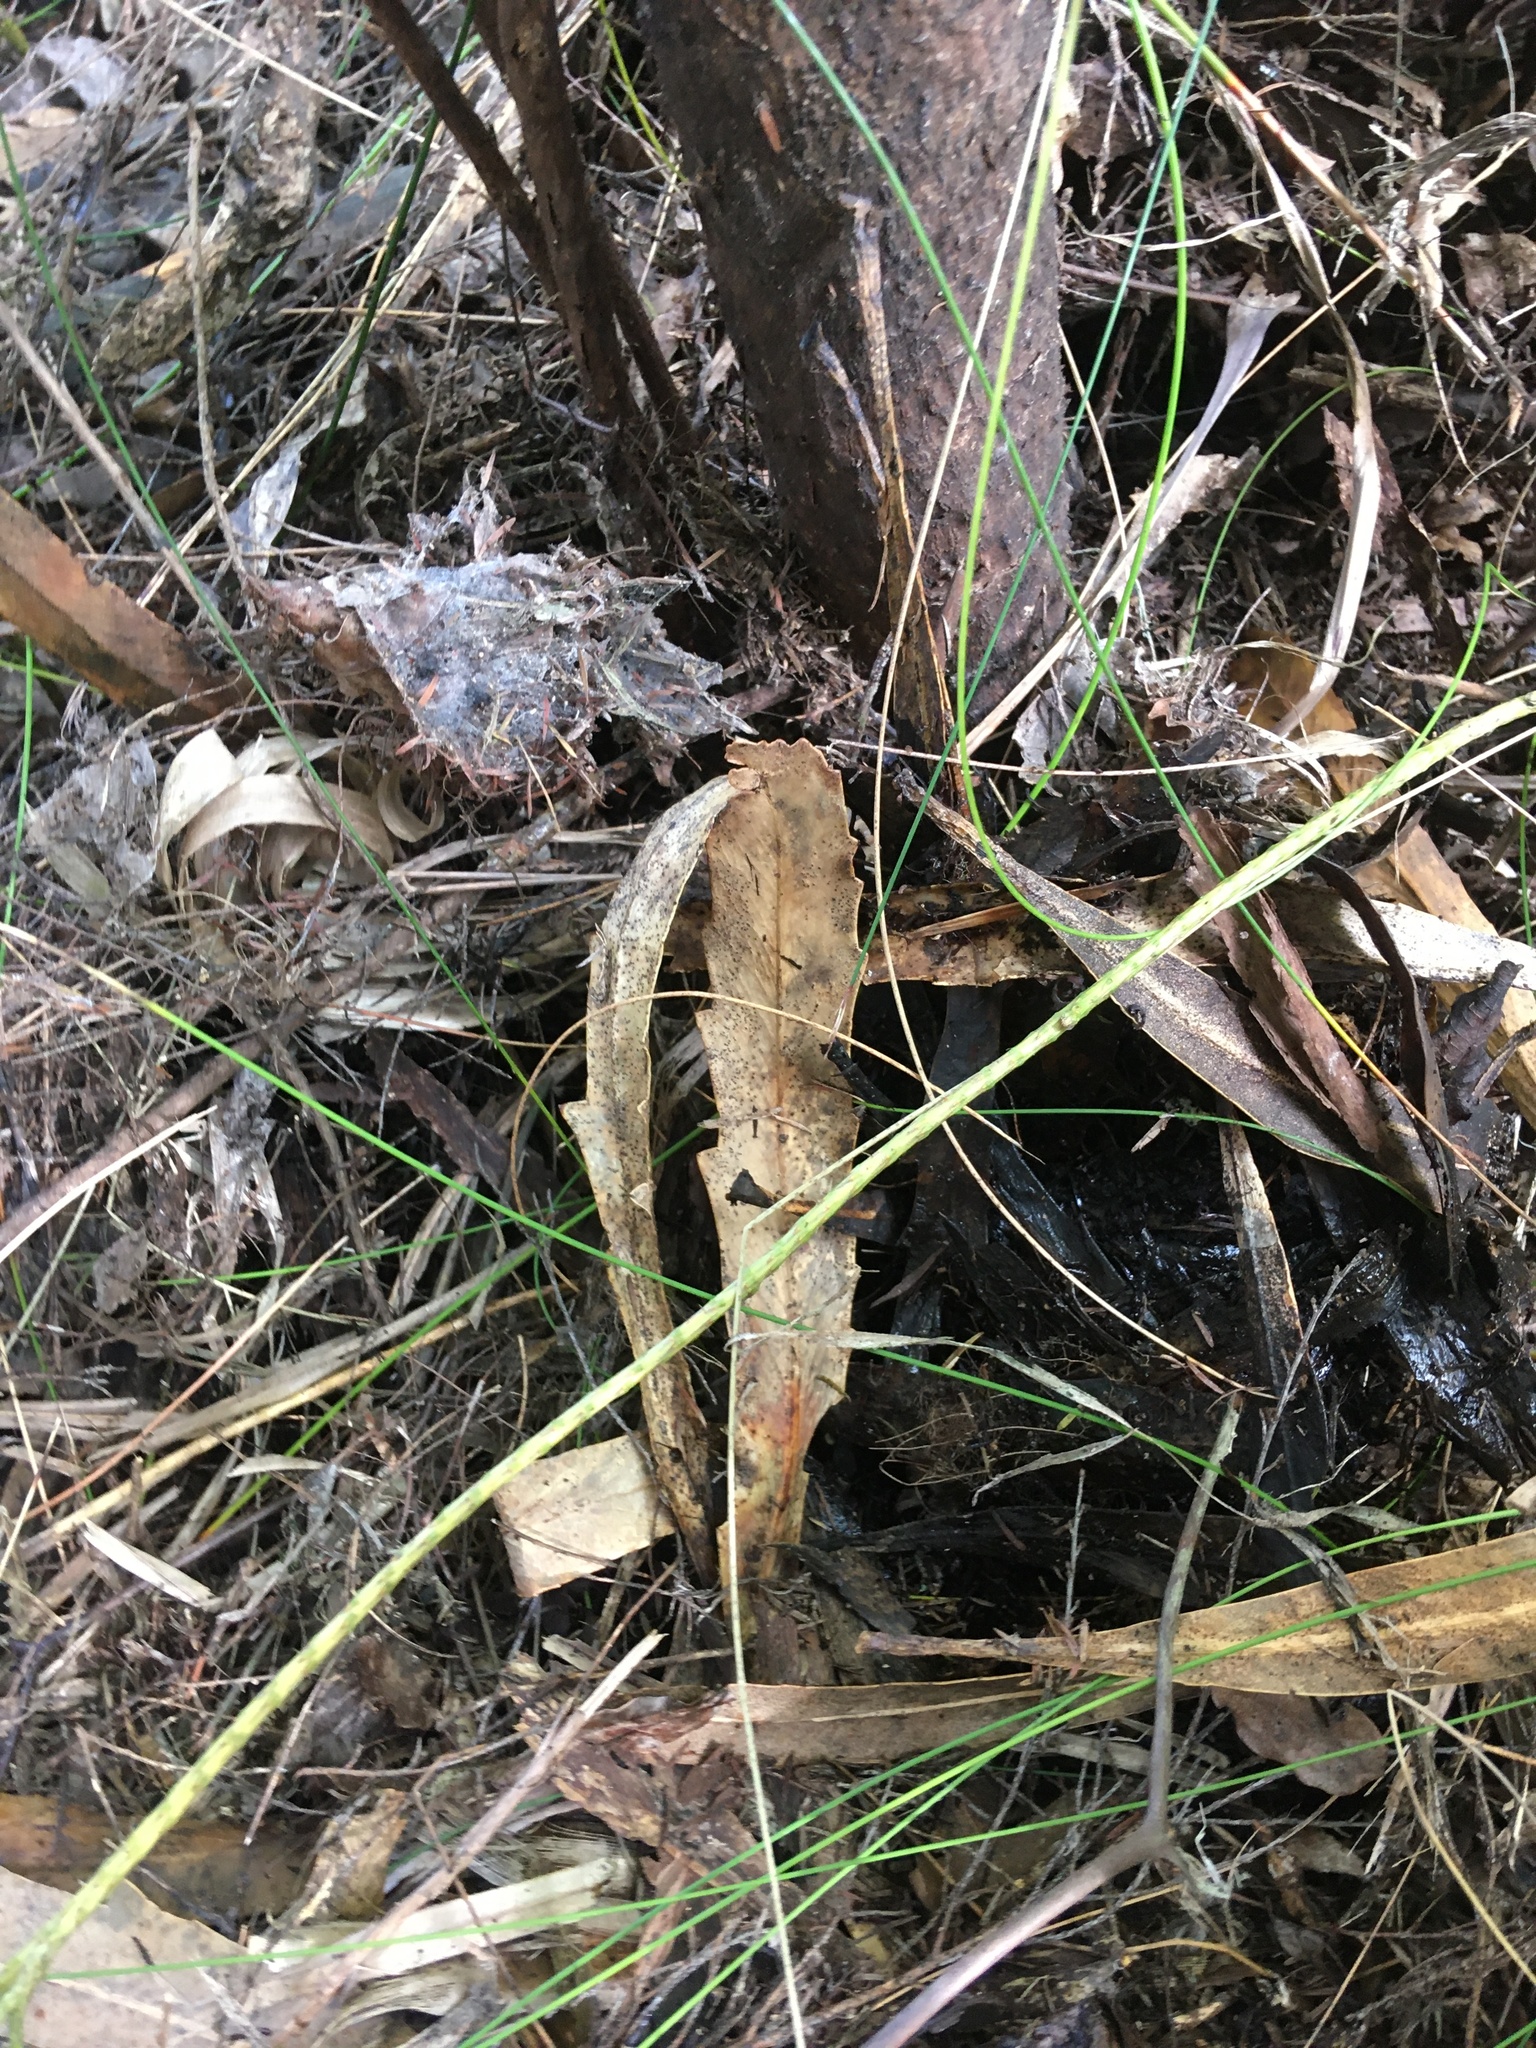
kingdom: Plantae
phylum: Tracheophyta
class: Magnoliopsida
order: Apiales
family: Araliaceae
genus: Pseudopanax
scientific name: Pseudopanax crassifolius
